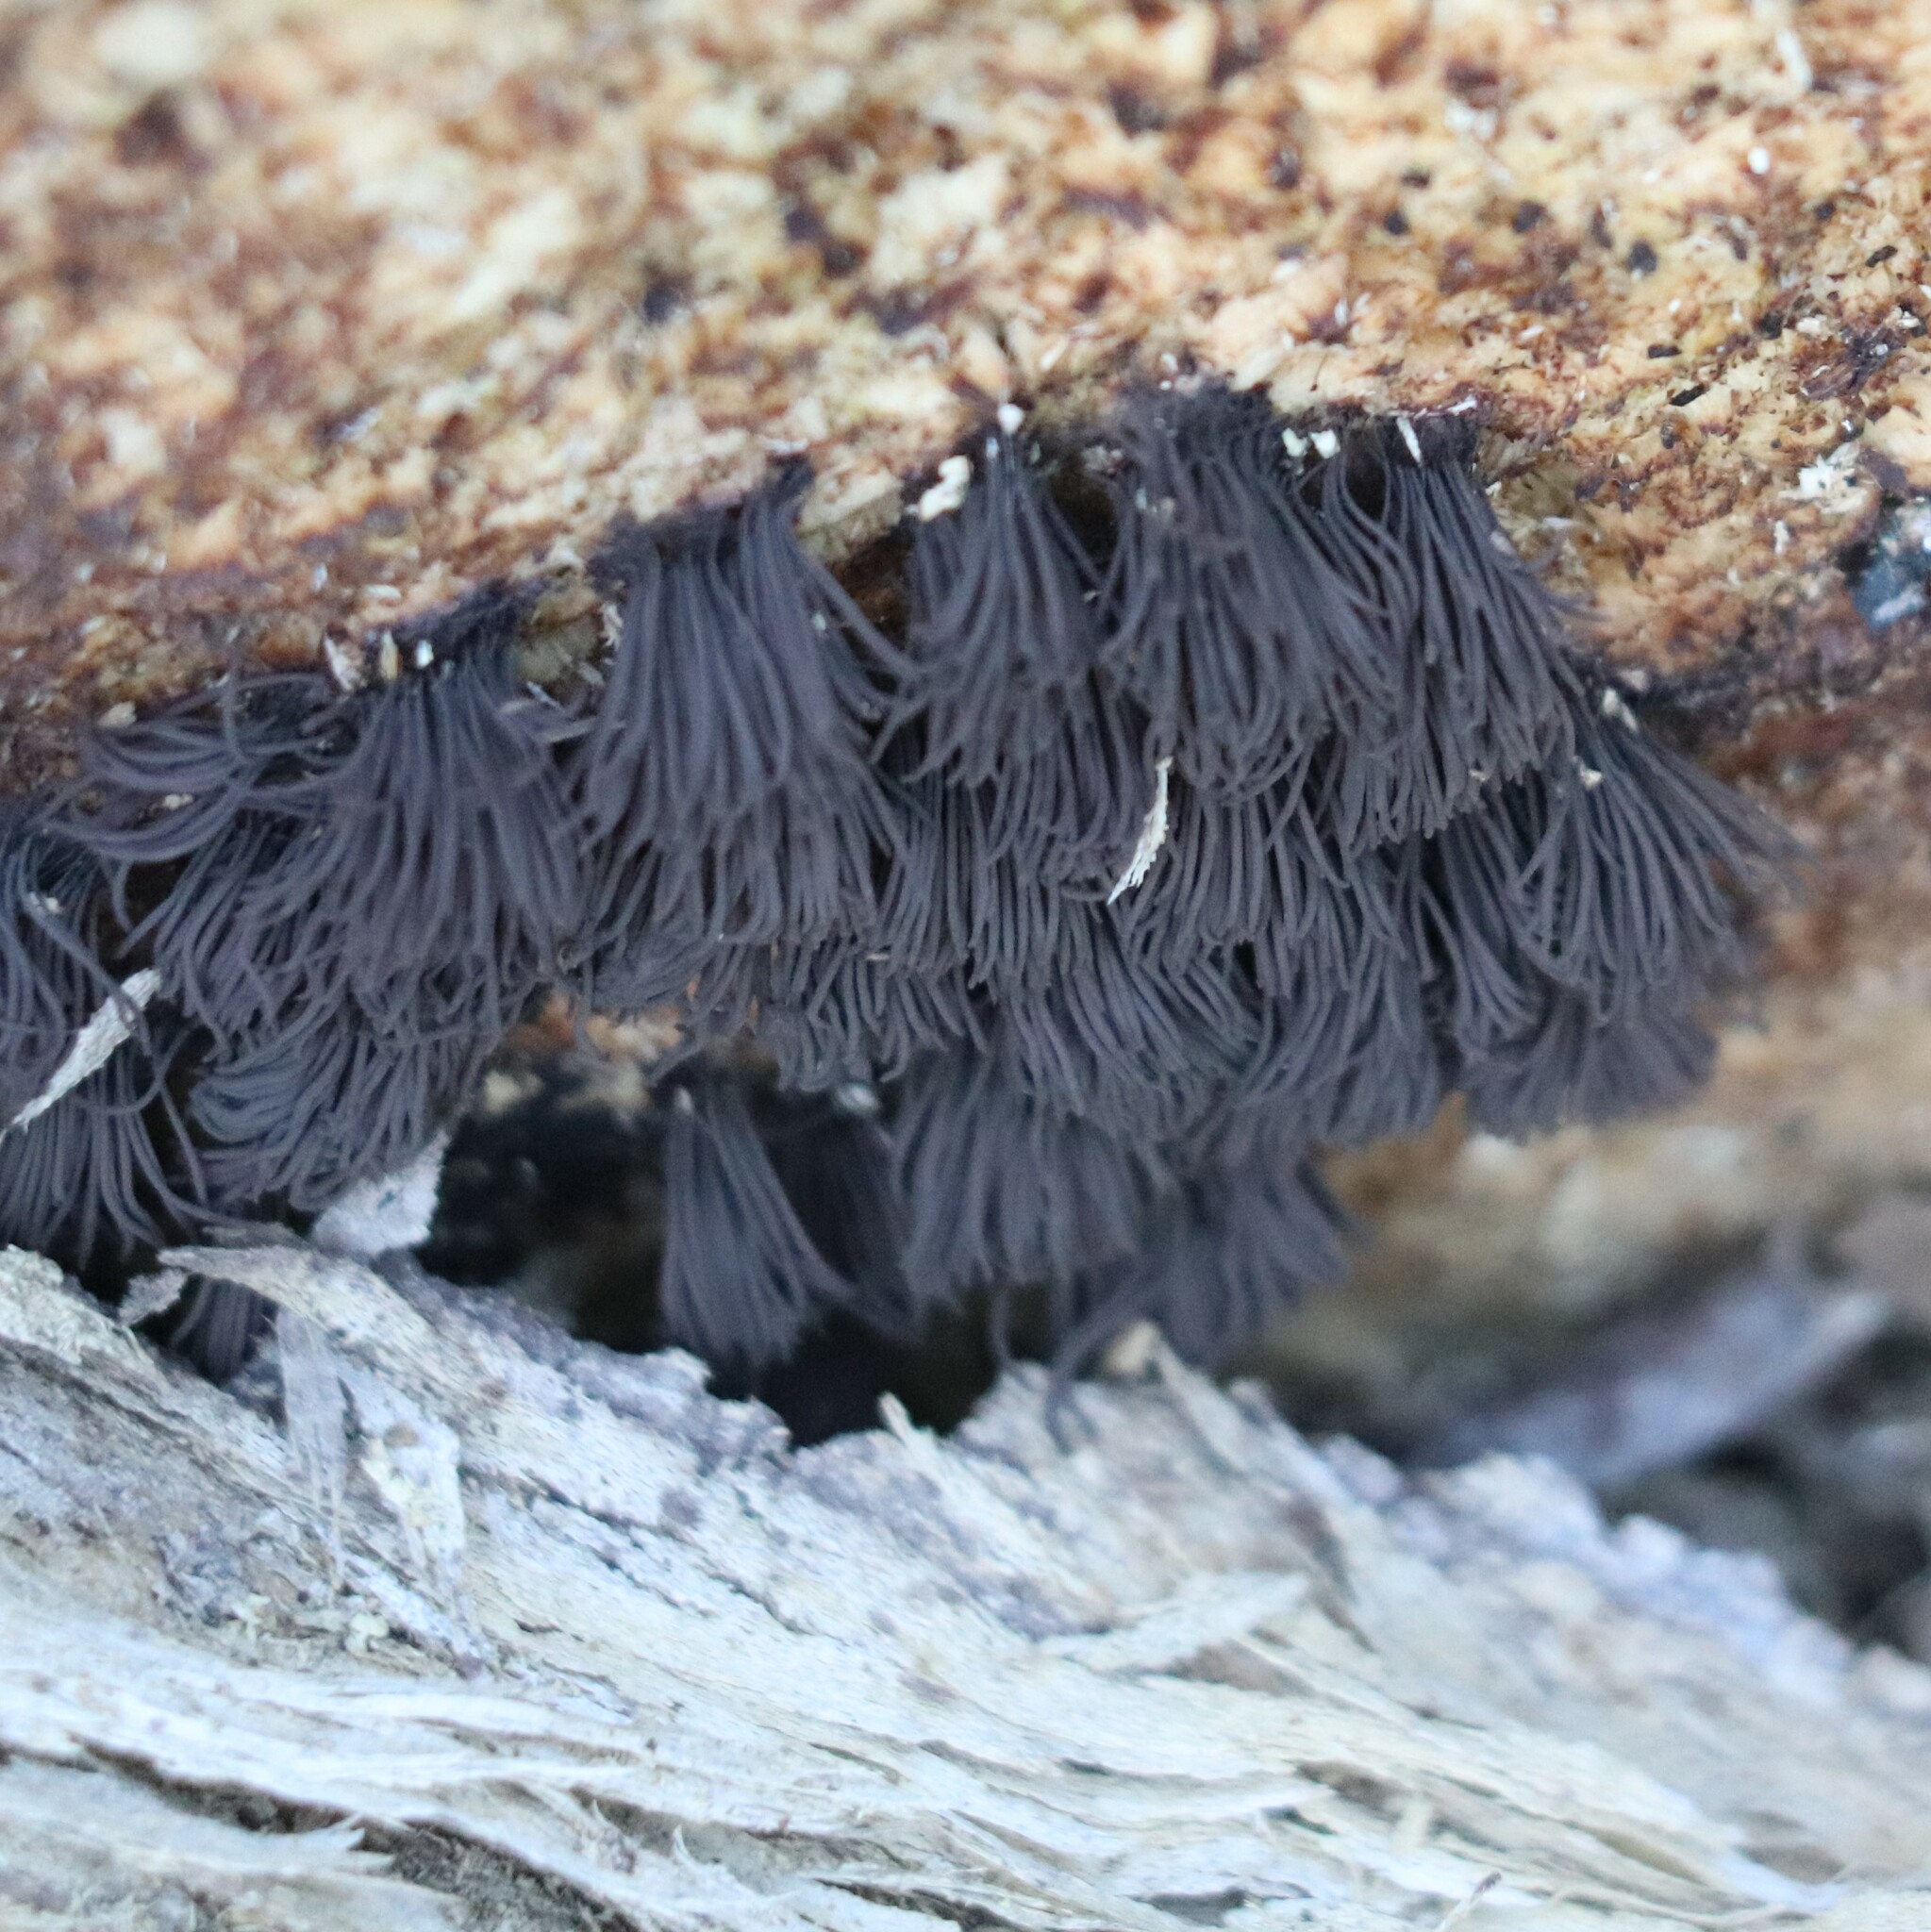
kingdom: Protozoa
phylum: Mycetozoa
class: Myxomycetes
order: Stemonitidales
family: Stemonitidaceae
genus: Stemonitis
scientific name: Stemonitis splendens
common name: Chocolate tube slime
